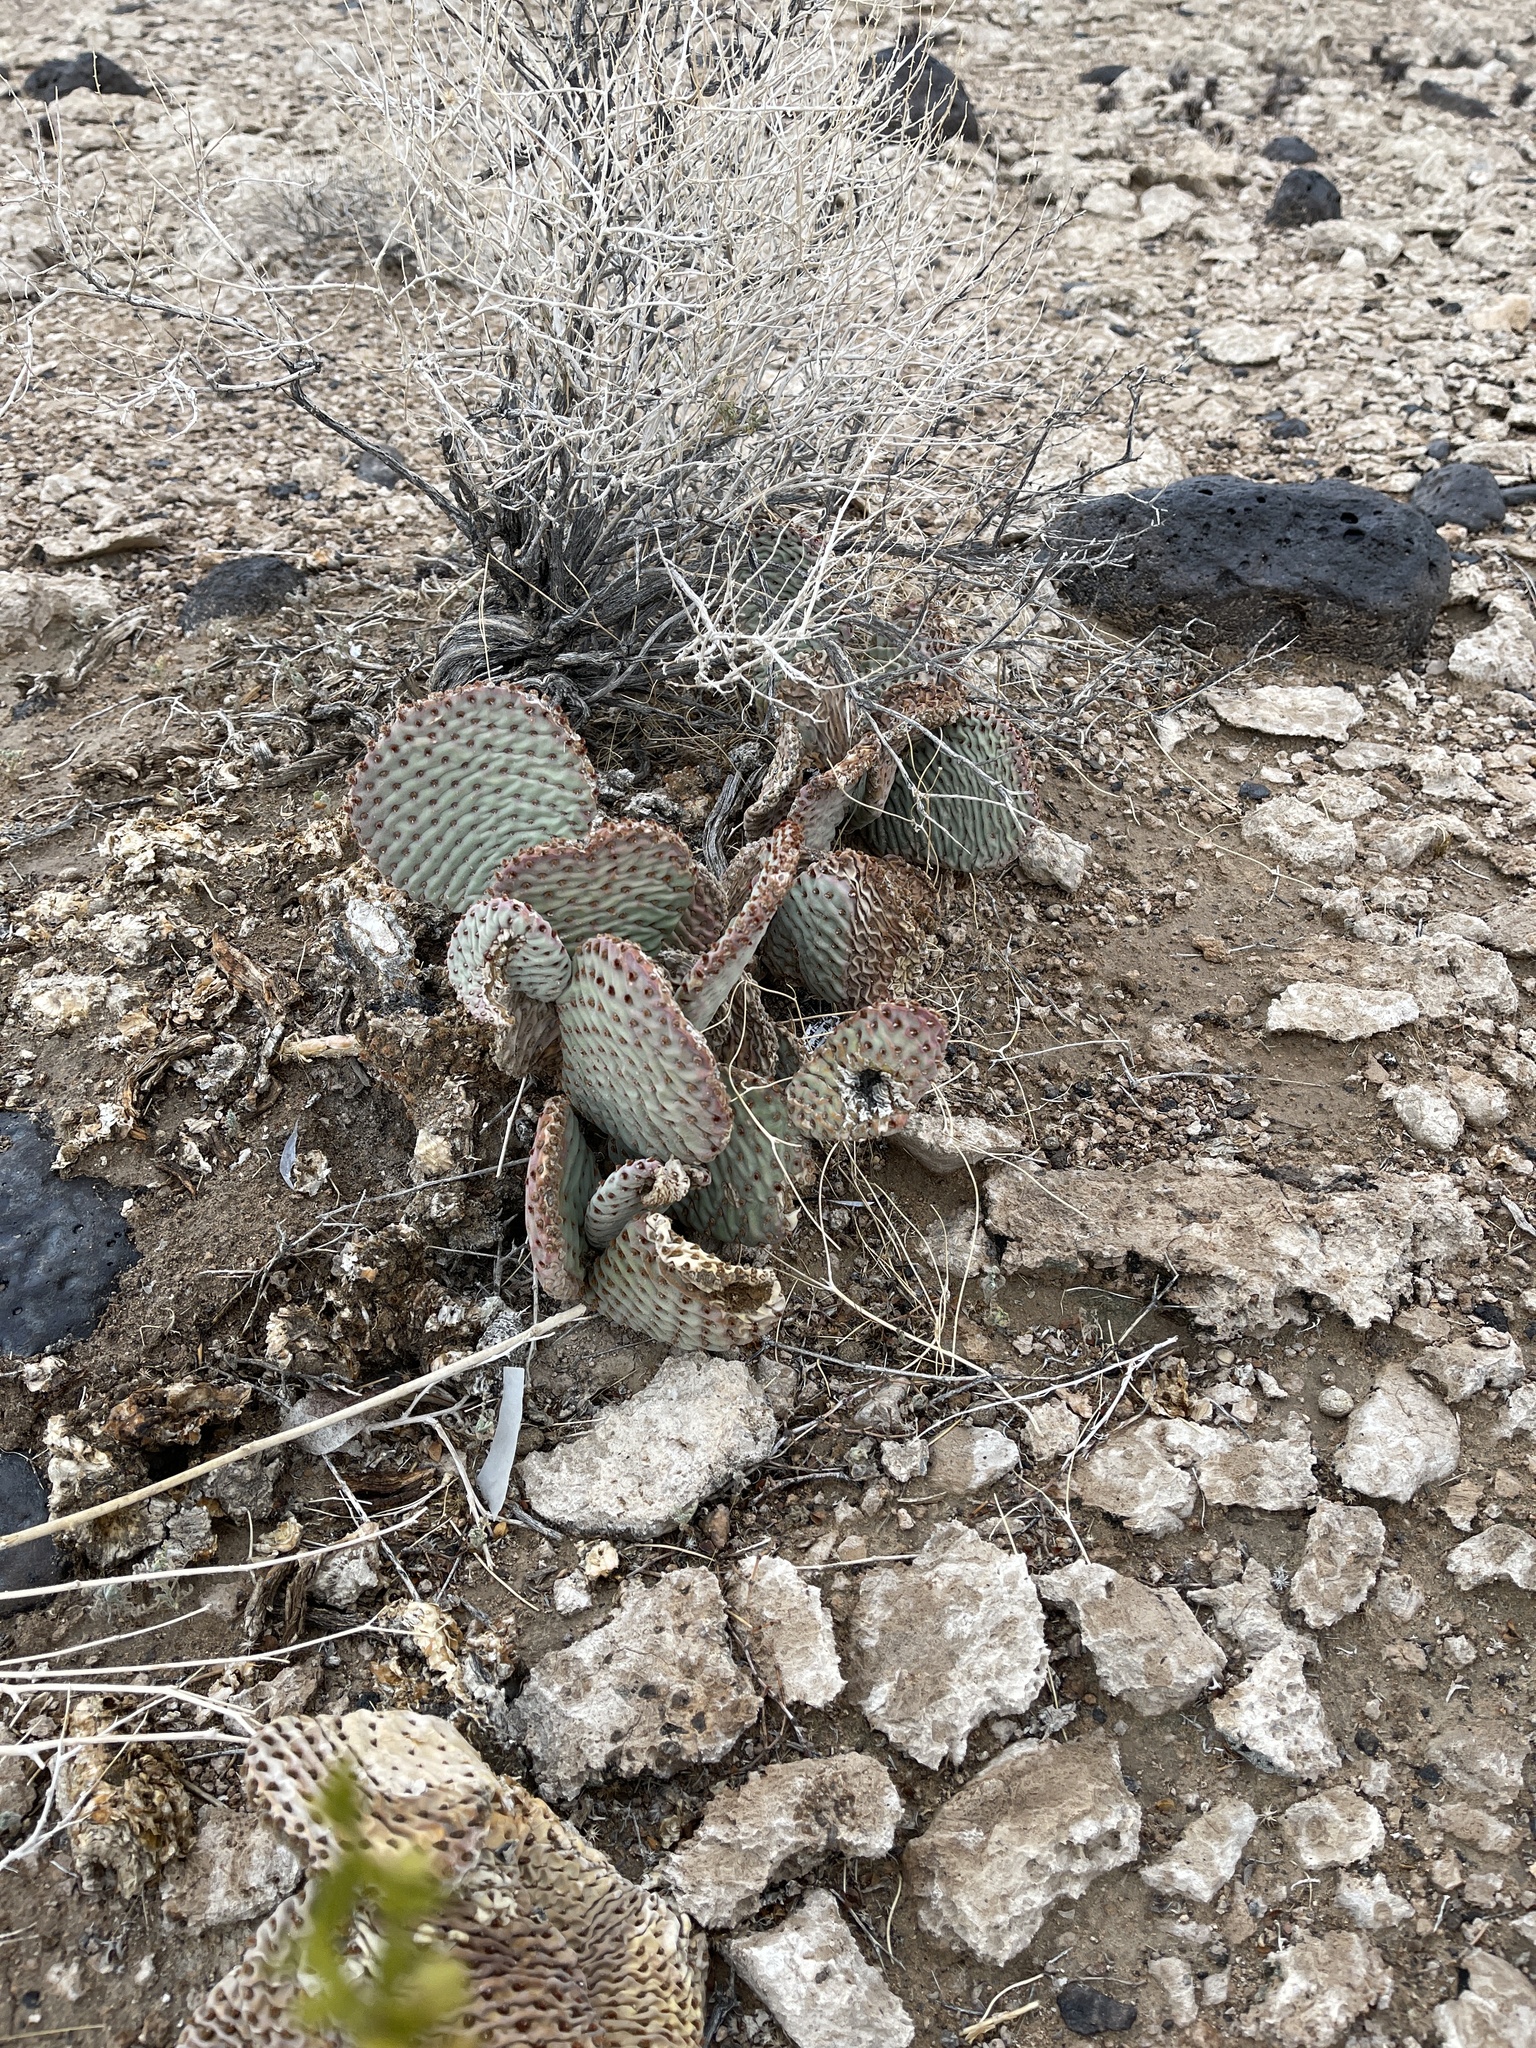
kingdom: Plantae
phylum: Tracheophyta
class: Magnoliopsida
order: Caryophyllales
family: Cactaceae
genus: Opuntia
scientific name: Opuntia basilaris
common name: Beavertail prickly-pear
